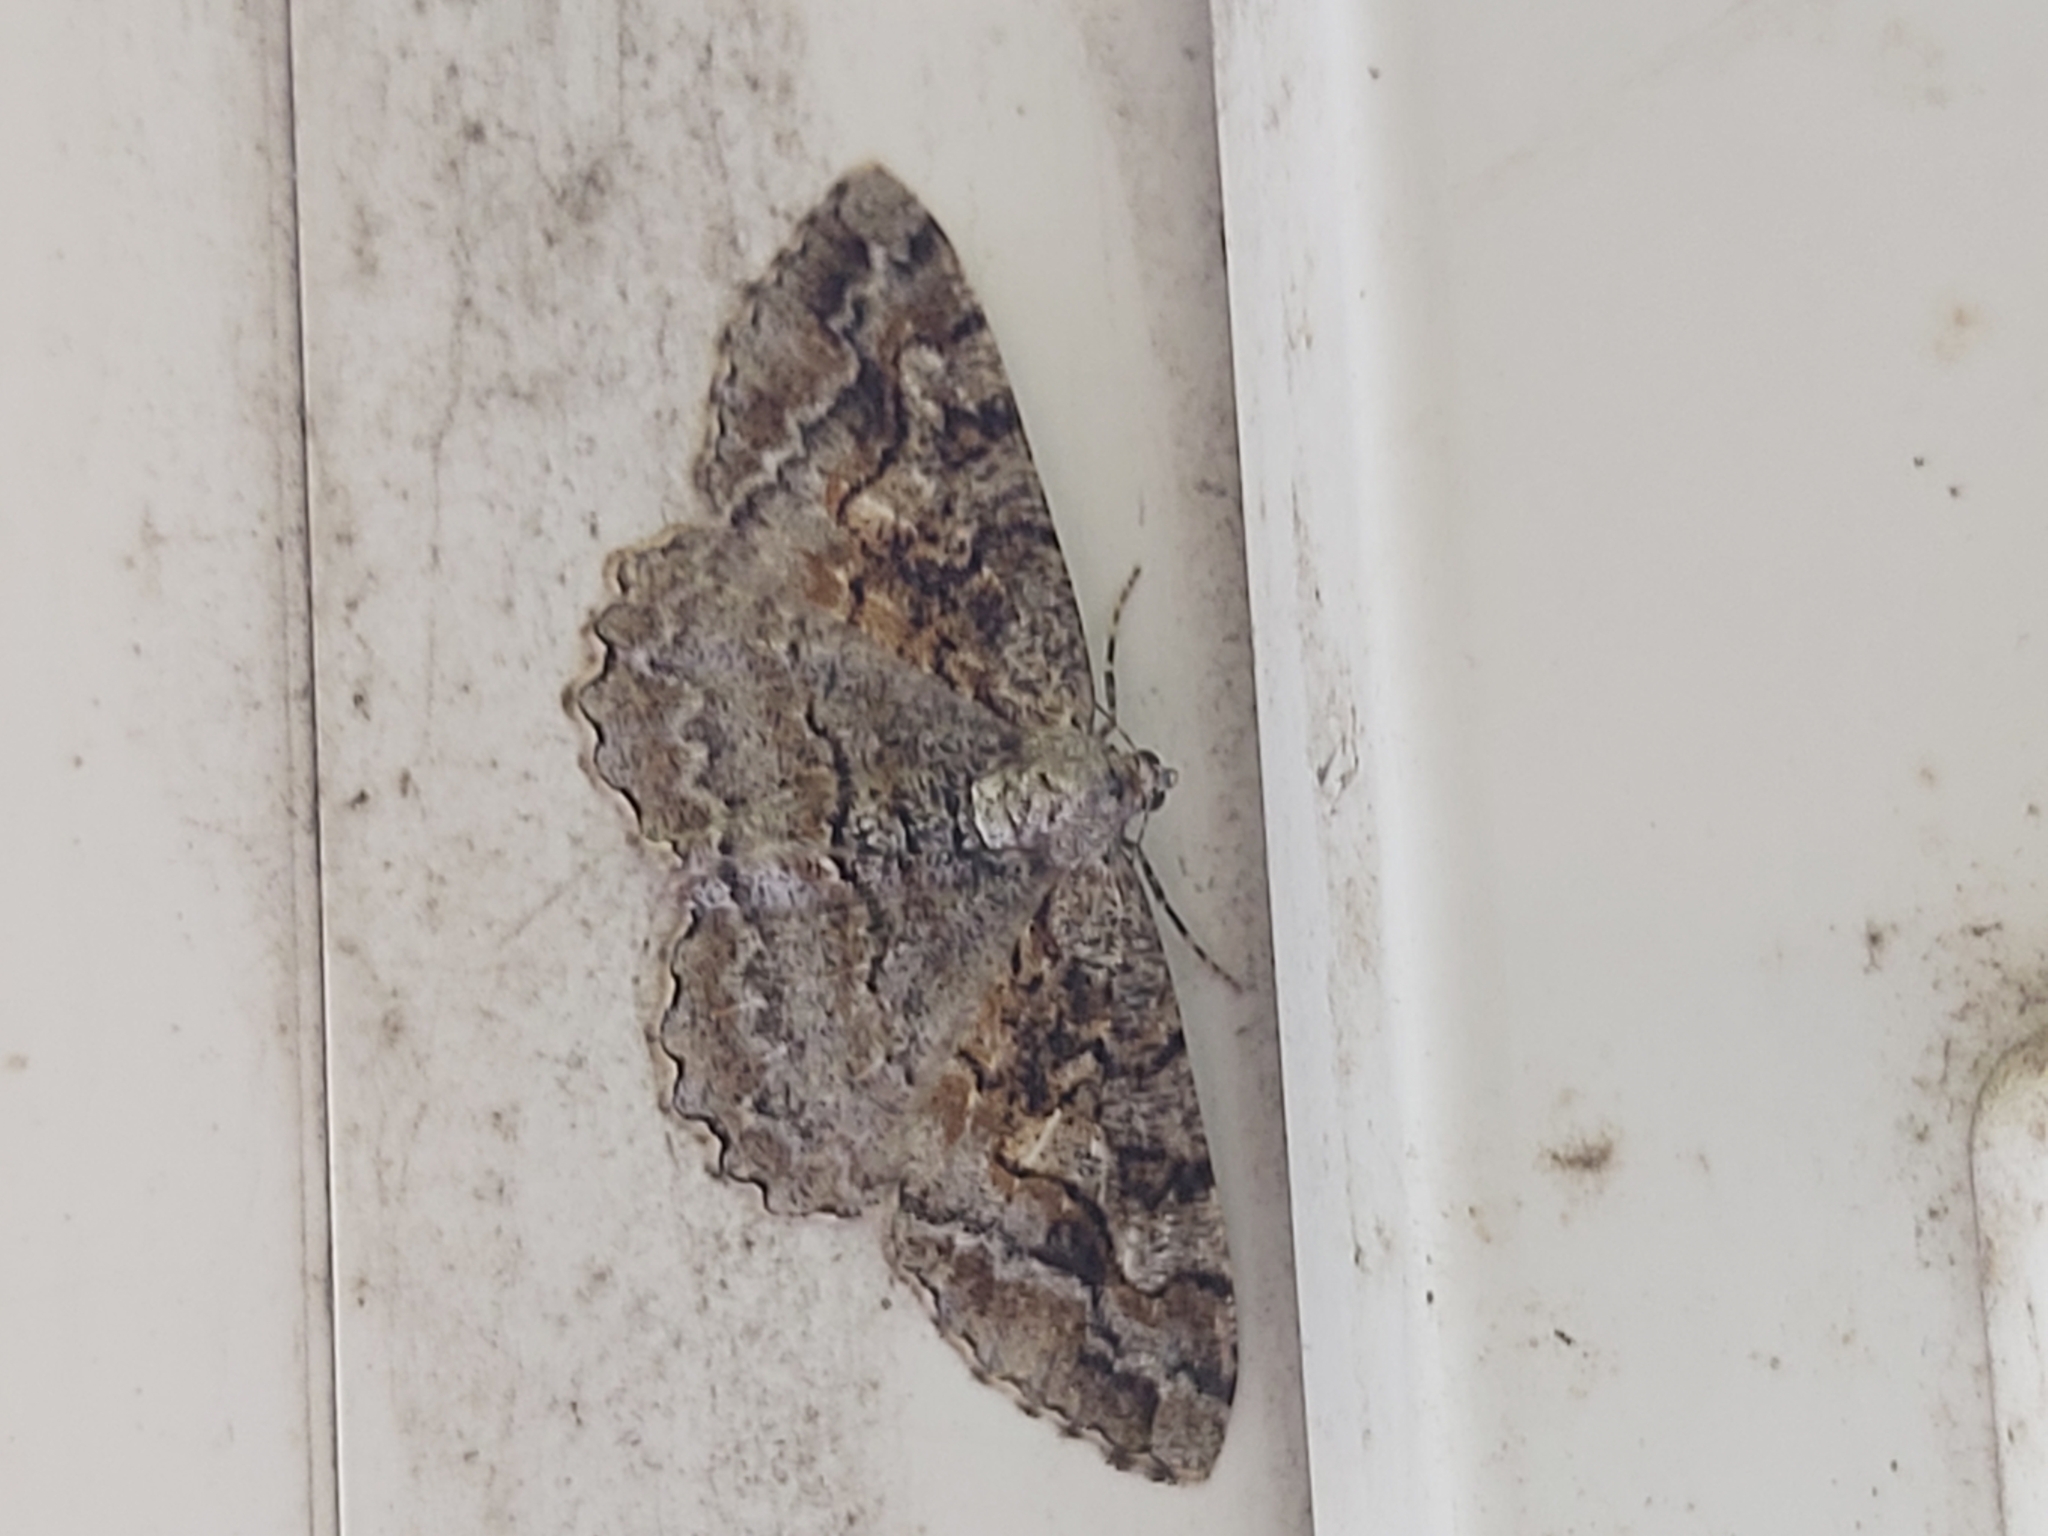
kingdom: Animalia
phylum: Arthropoda
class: Insecta
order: Lepidoptera
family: Geometridae
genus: Alcis
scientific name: Alcis repandata
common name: Mottled beauty
